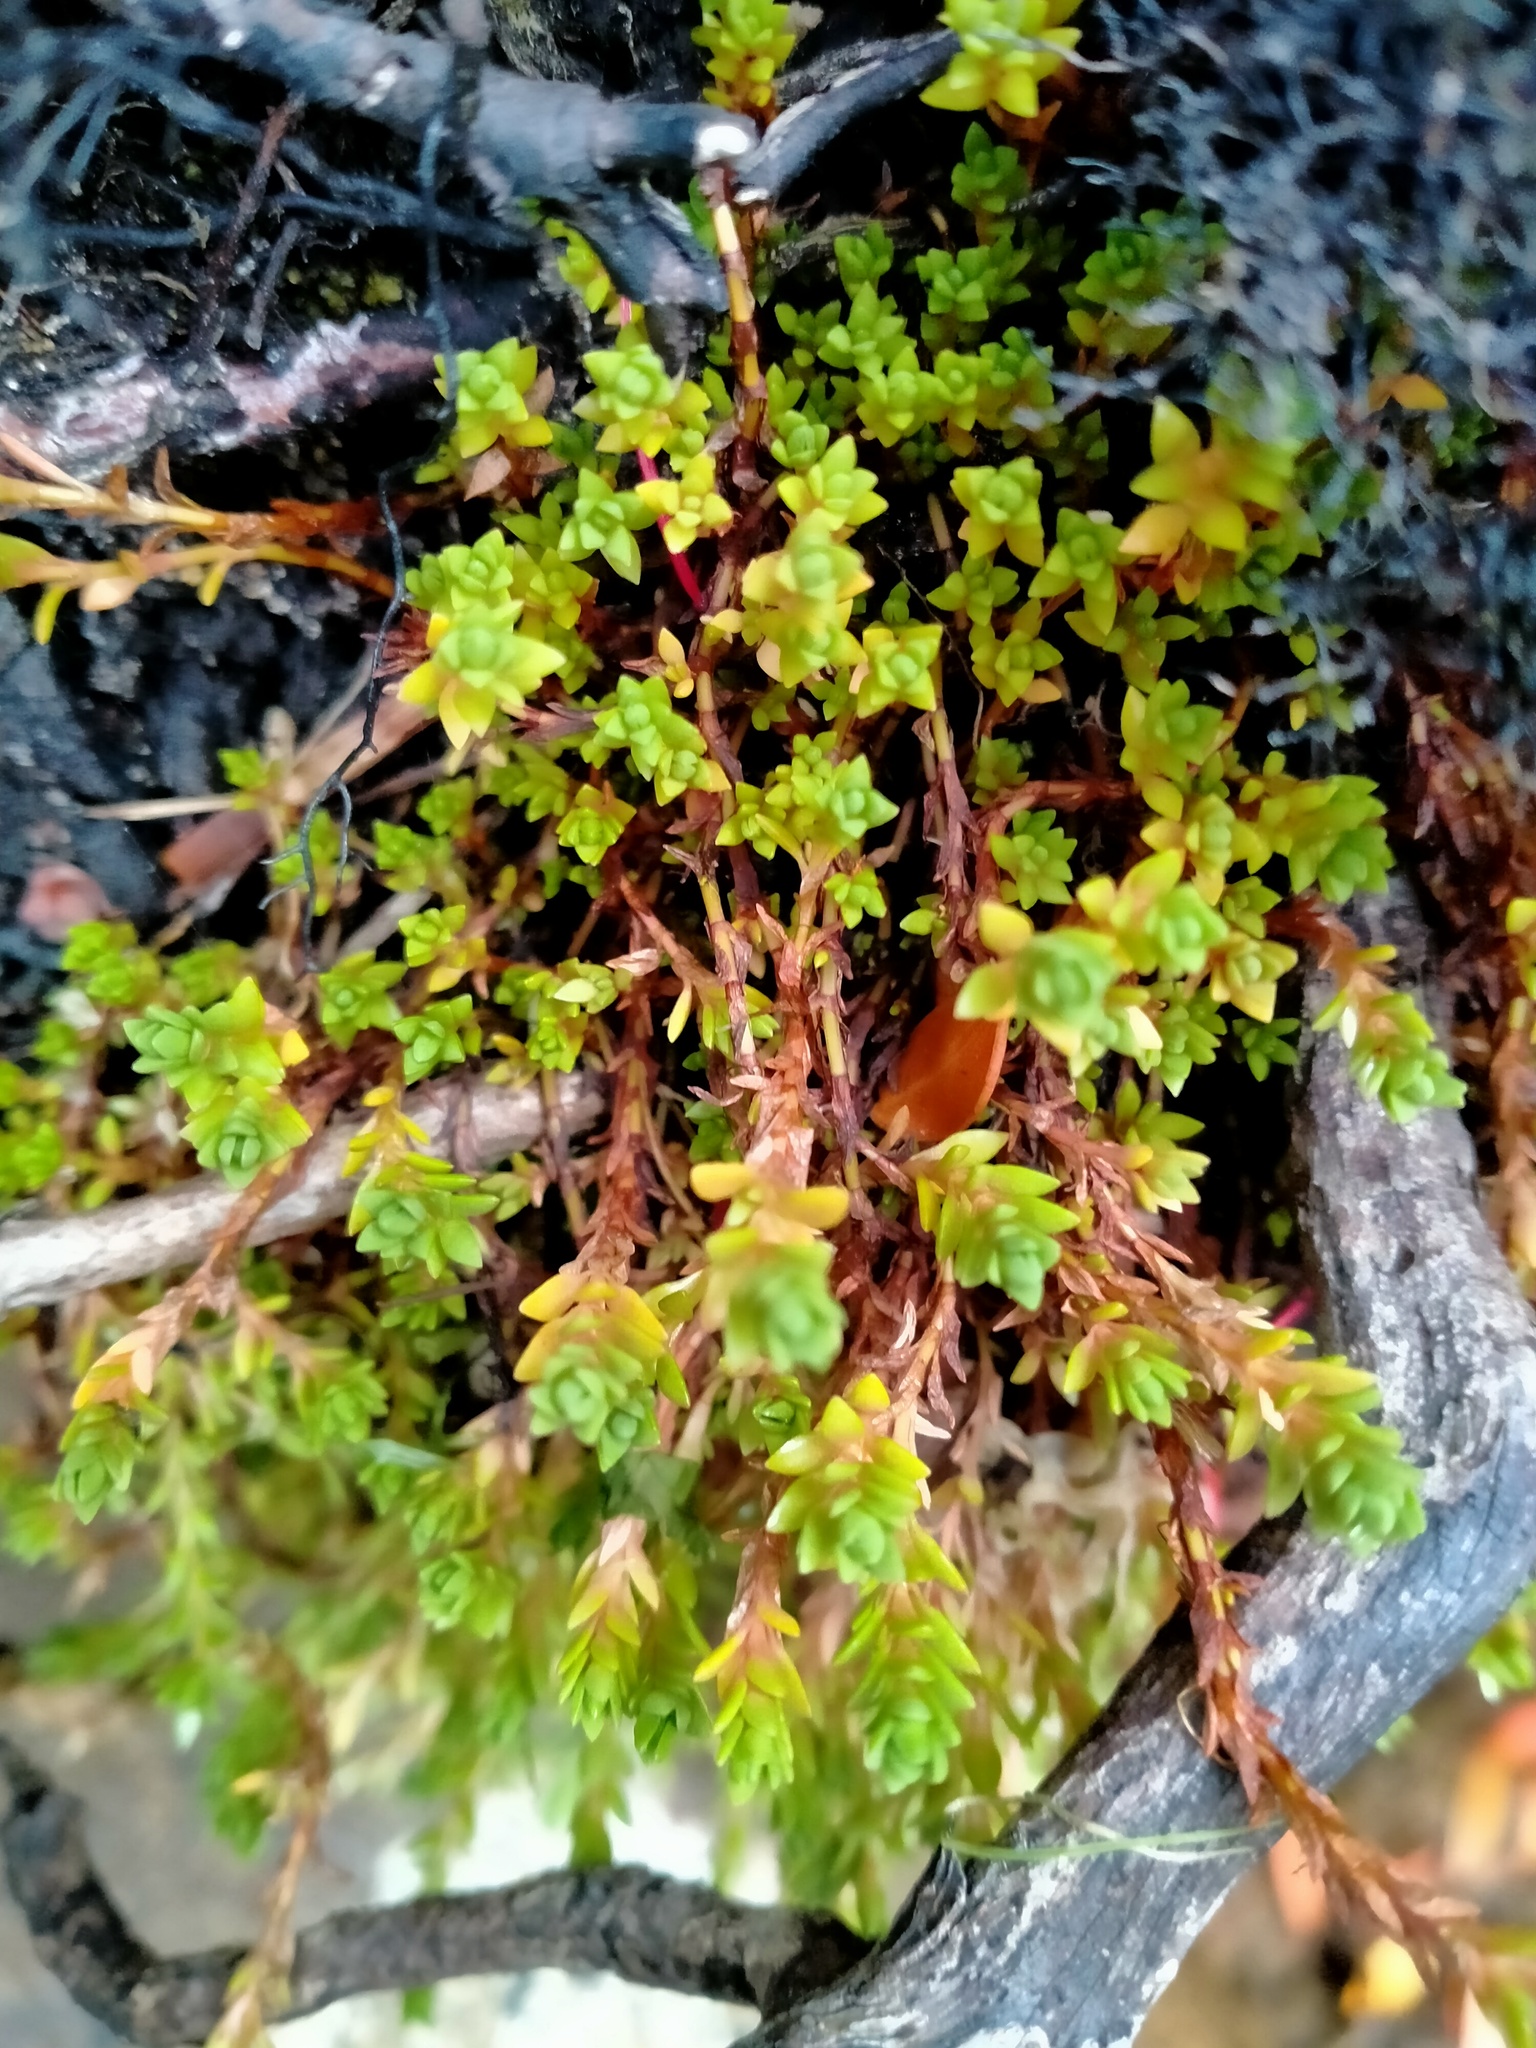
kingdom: Plantae
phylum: Tracheophyta
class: Magnoliopsida
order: Saxifragales
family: Crassulaceae
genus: Crassula
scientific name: Crassula moschata
